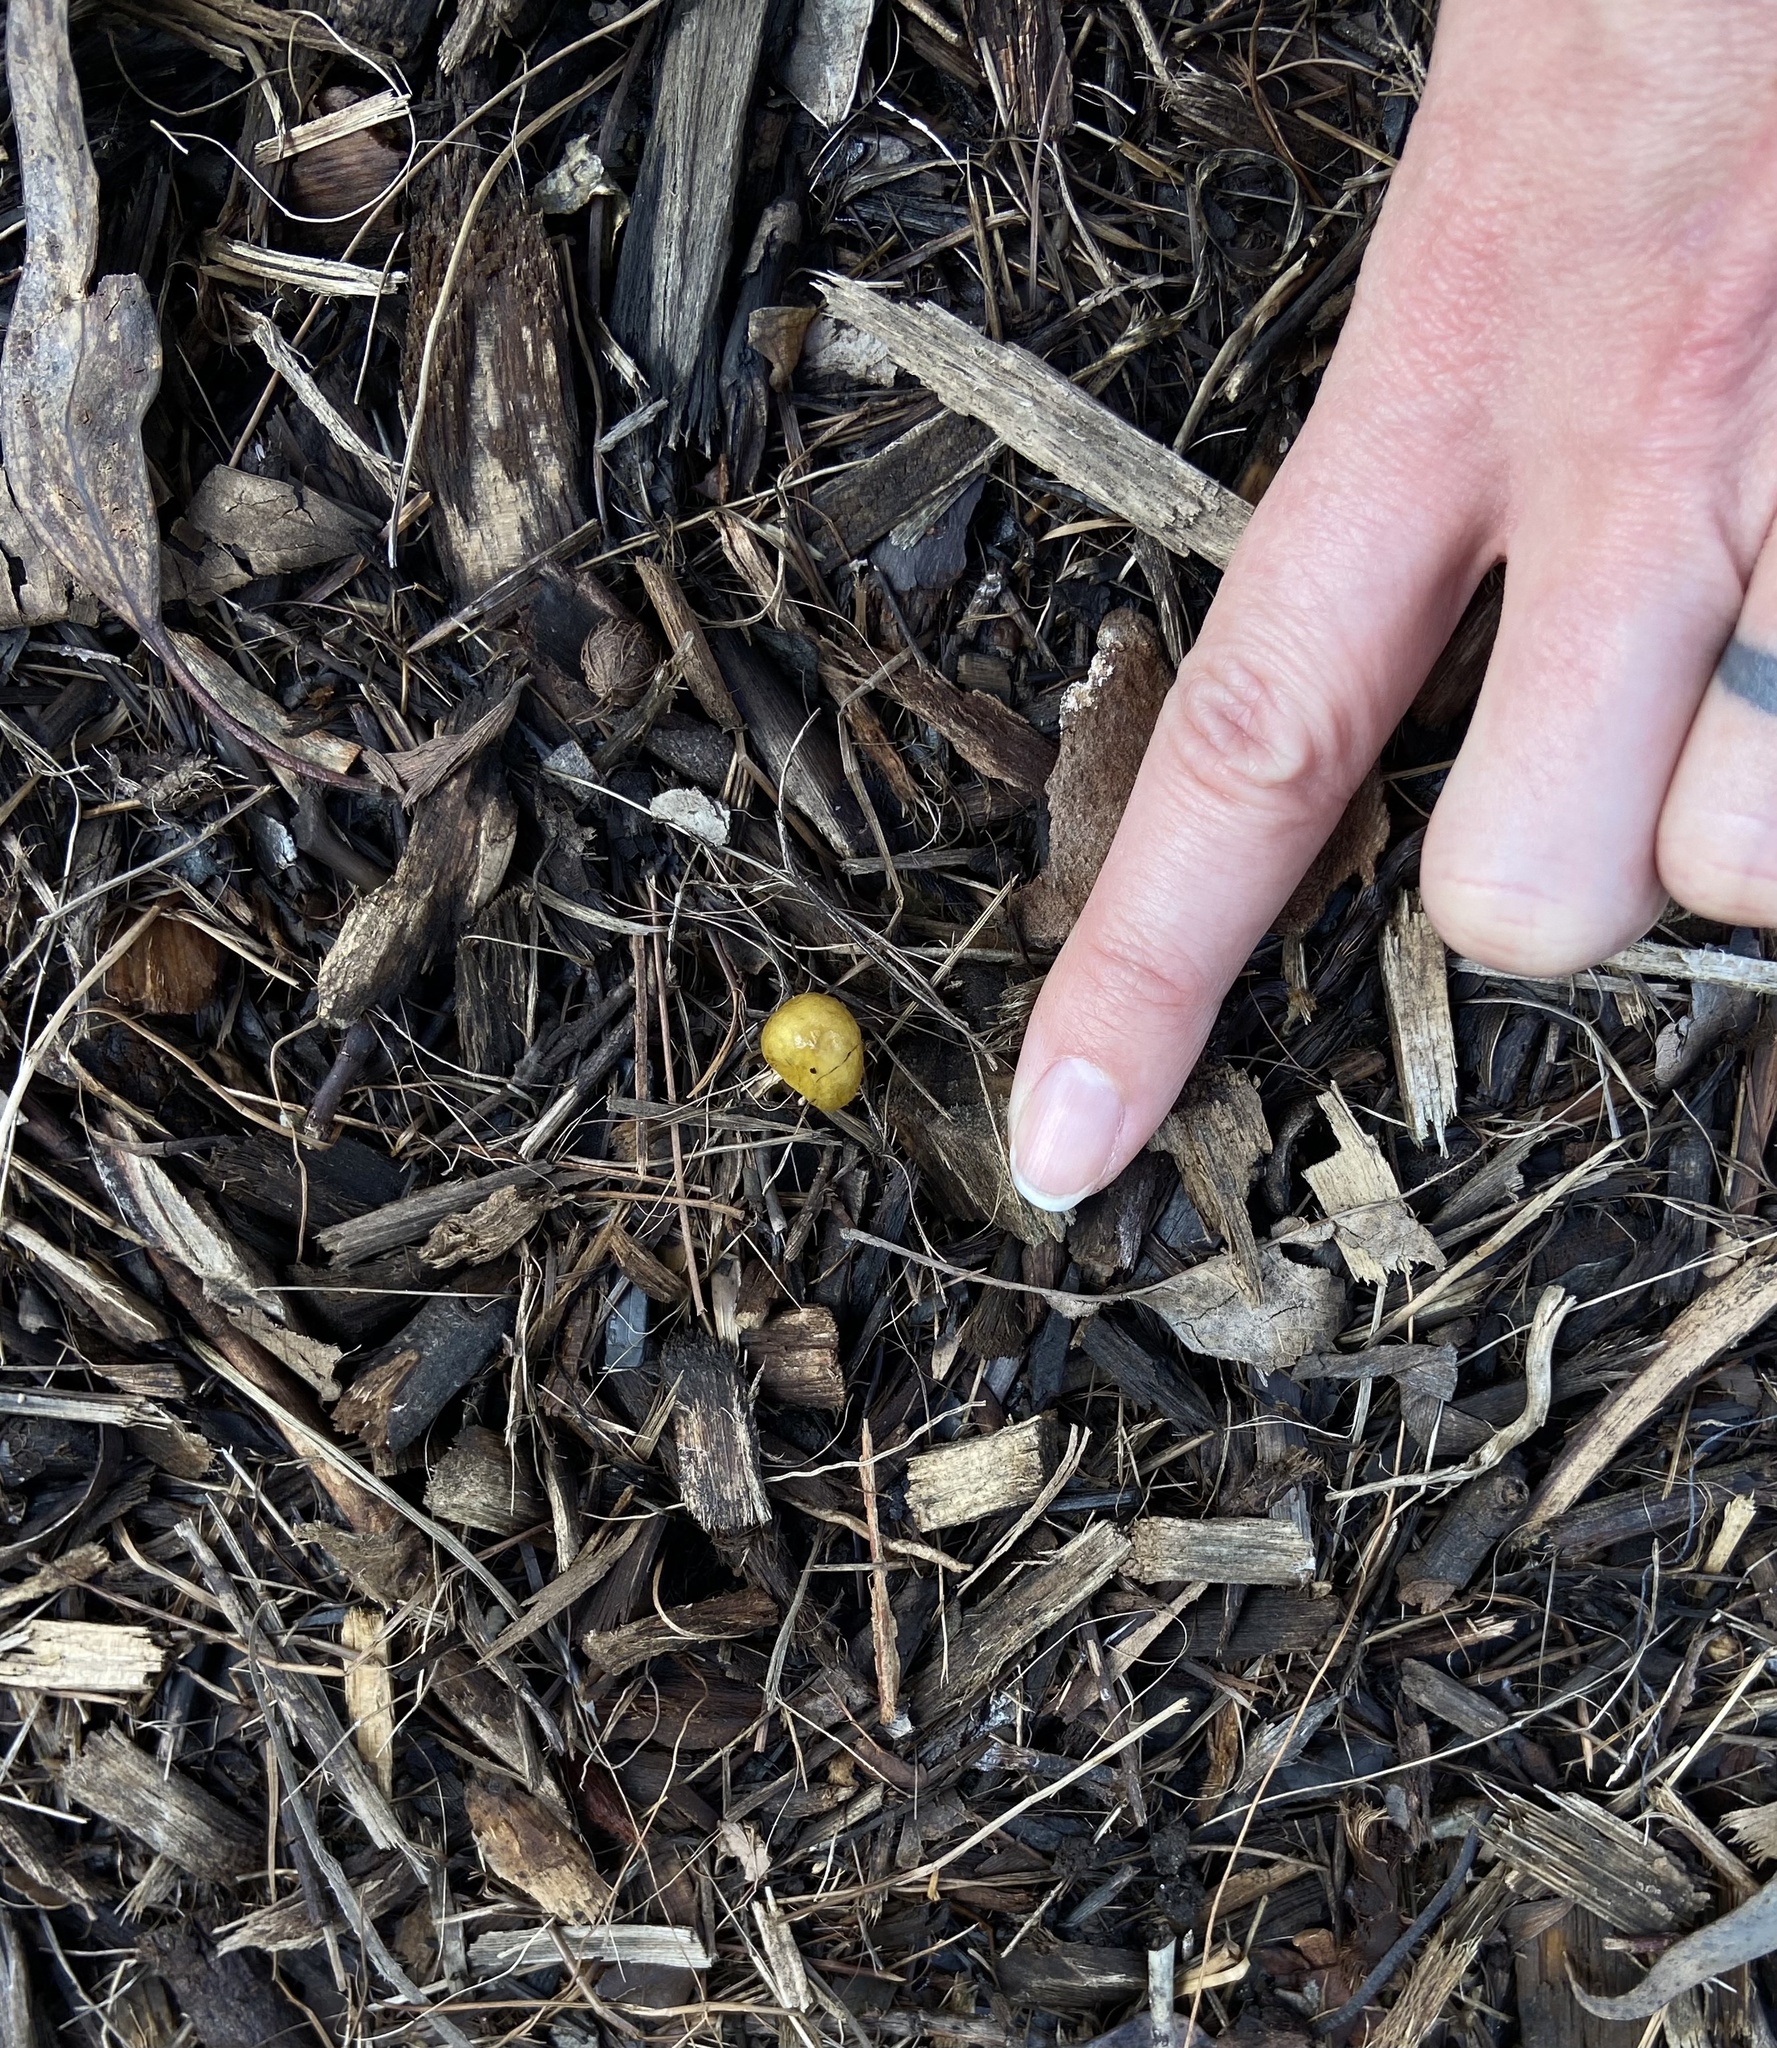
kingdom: Fungi
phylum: Basidiomycota
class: Agaricomycetes
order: Agaricales
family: Bolbitiaceae
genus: Bolbitius
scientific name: Bolbitius titubans
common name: Yellow fieldcap
